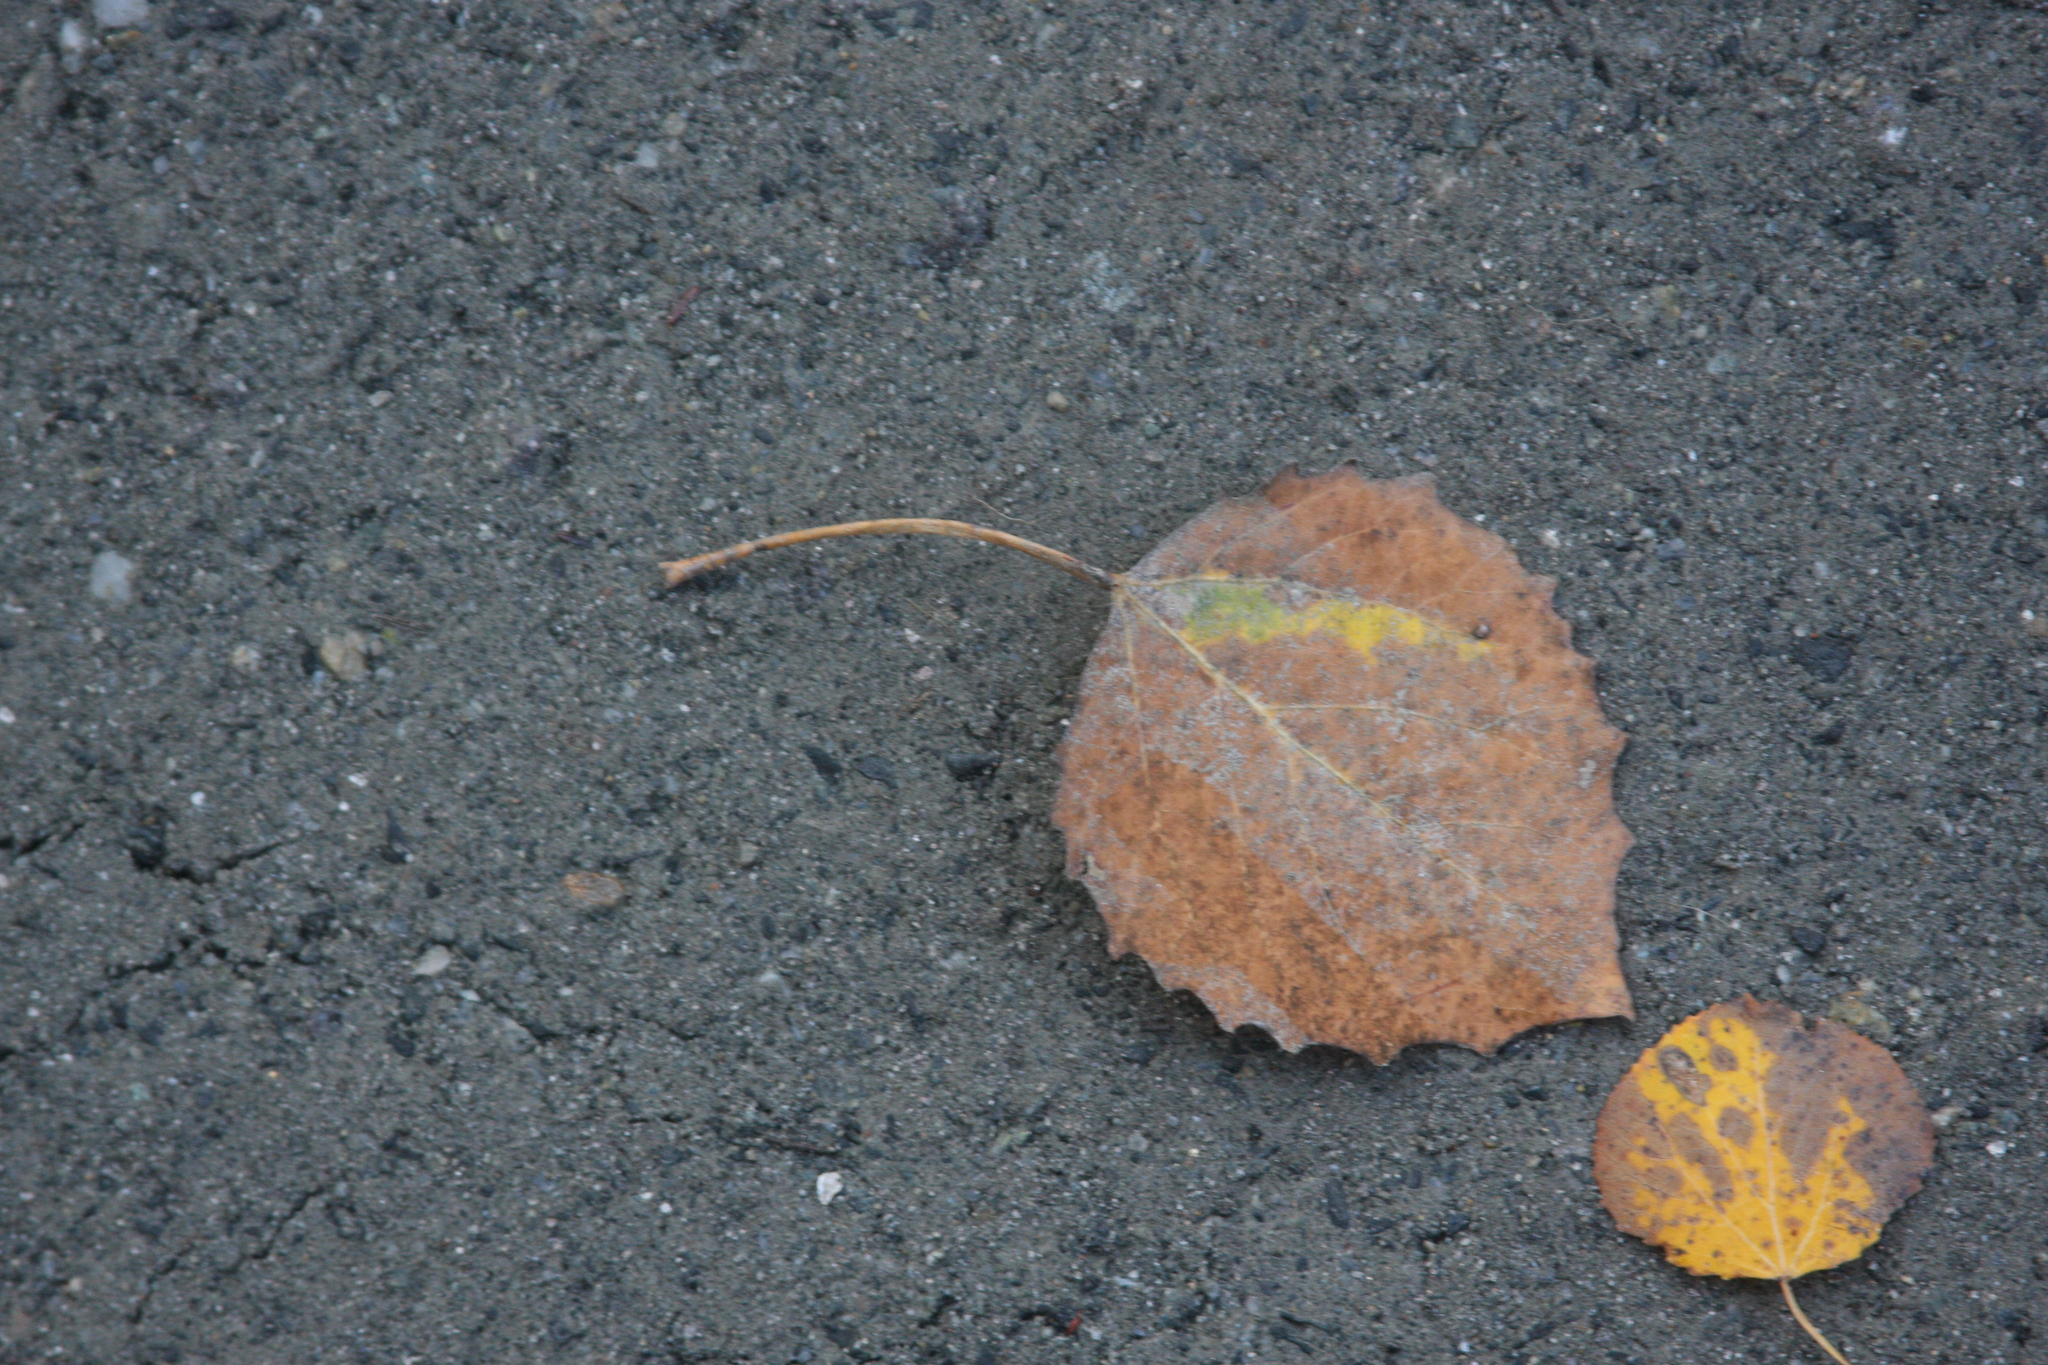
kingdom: Plantae
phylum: Tracheophyta
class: Magnoliopsida
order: Malpighiales
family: Salicaceae
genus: Populus
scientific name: Populus grandidentata
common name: Bigtooth aspen
